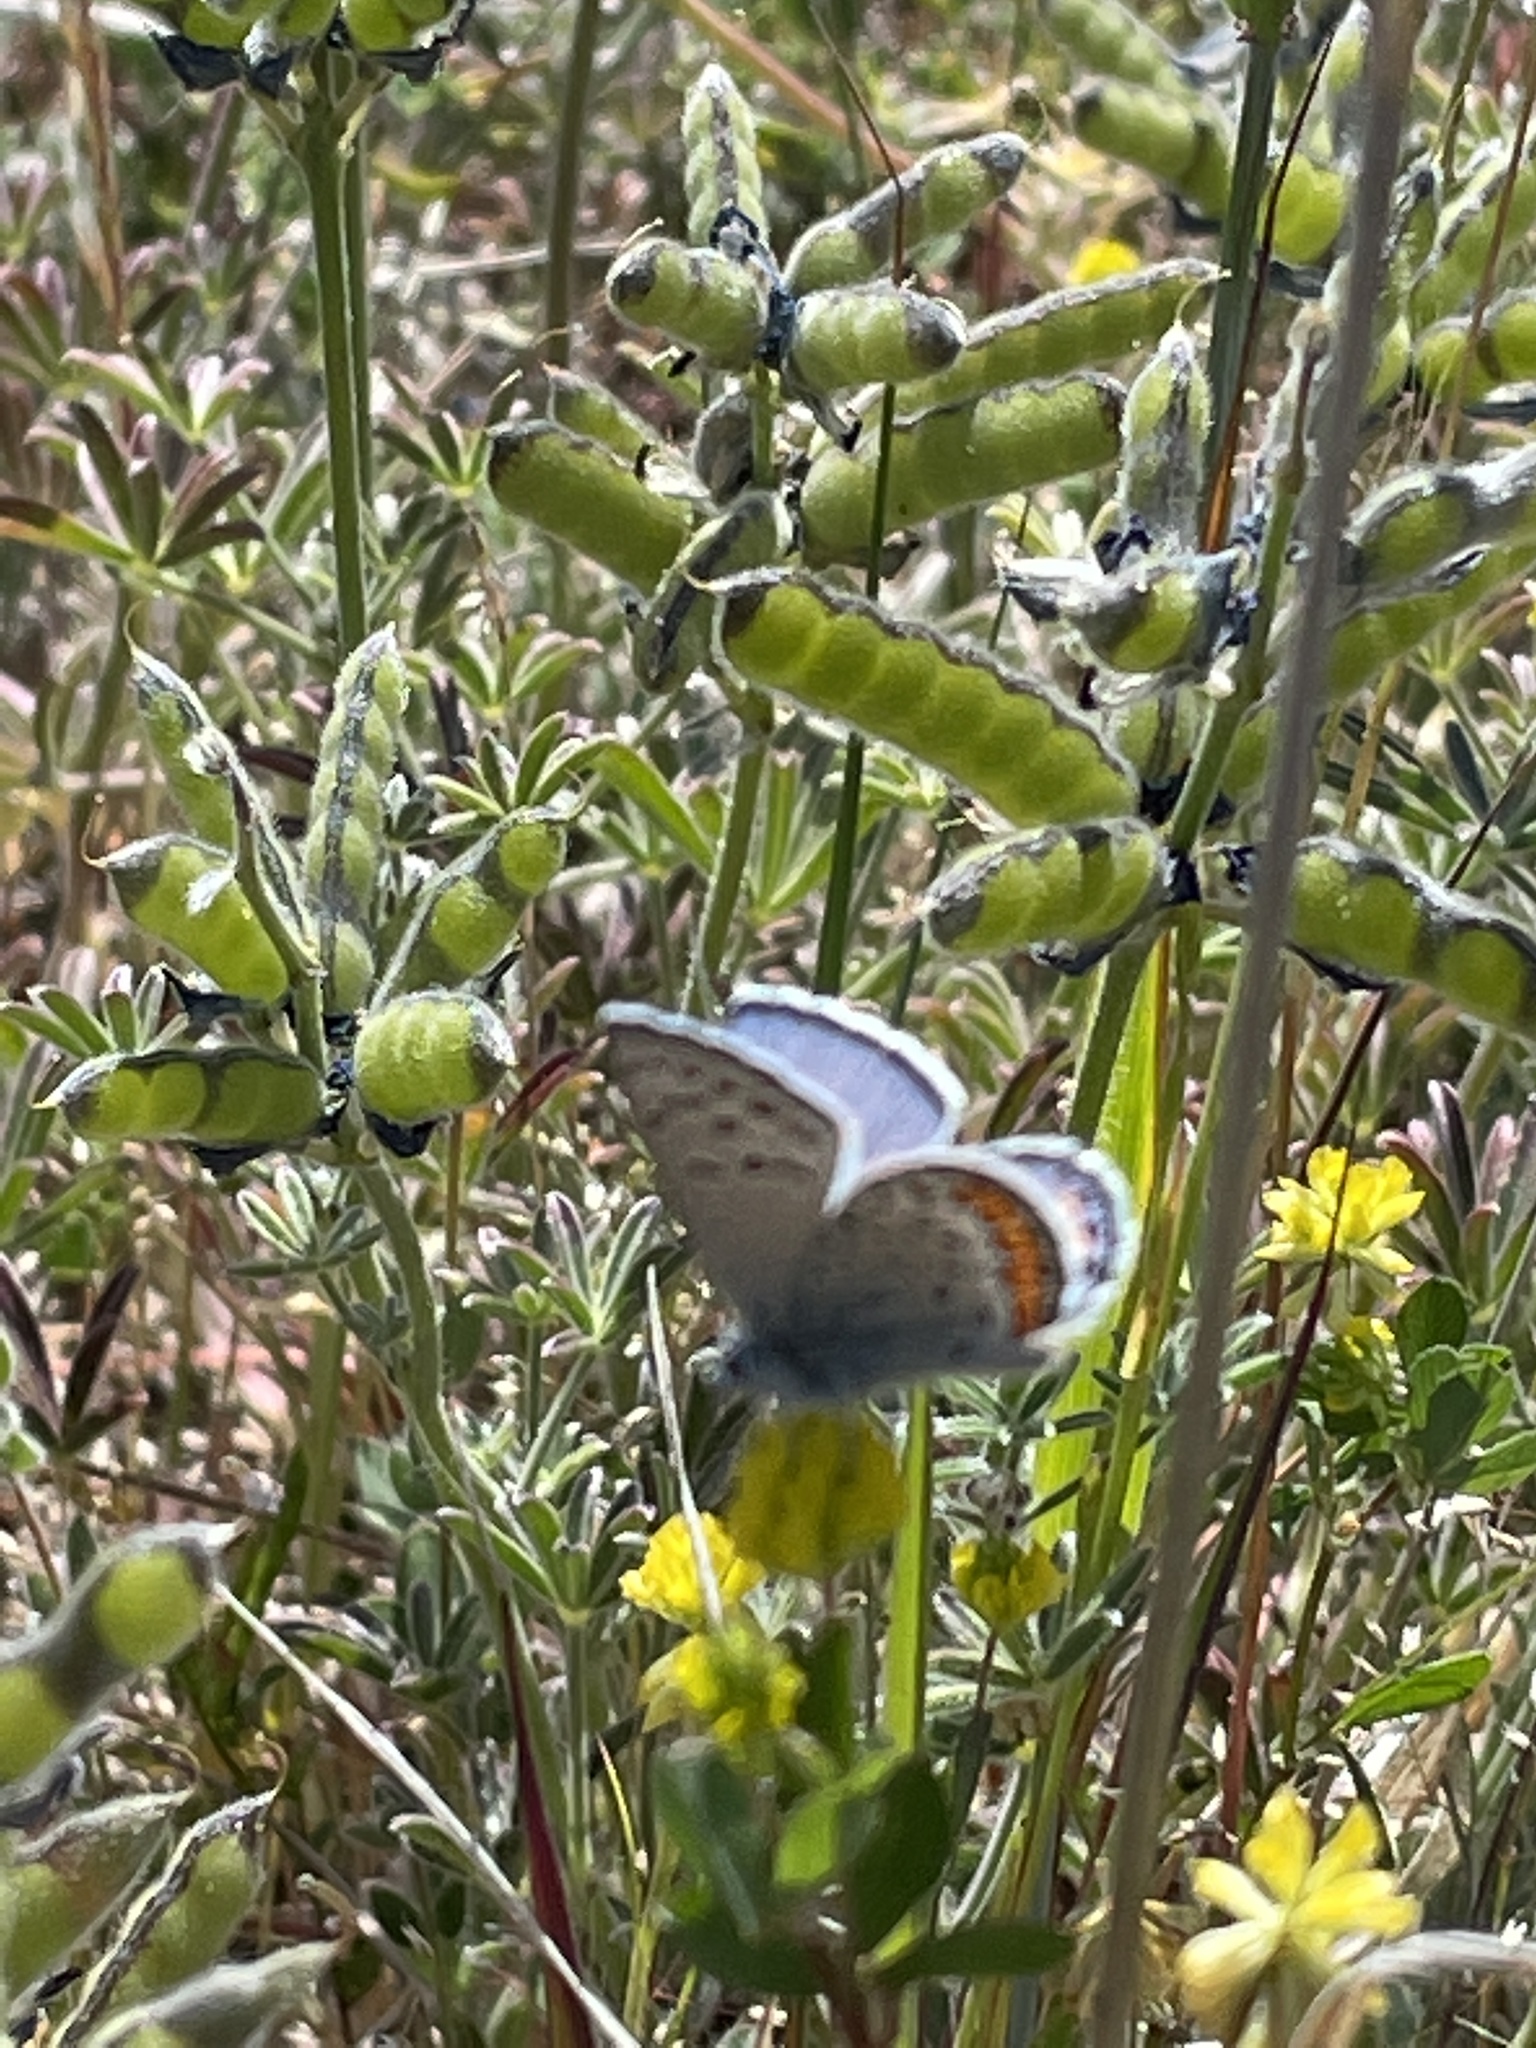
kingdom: Animalia
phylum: Arthropoda
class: Insecta
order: Lepidoptera
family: Lycaenidae
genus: Icaricia
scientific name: Icaricia acmon
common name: Acmon blue
